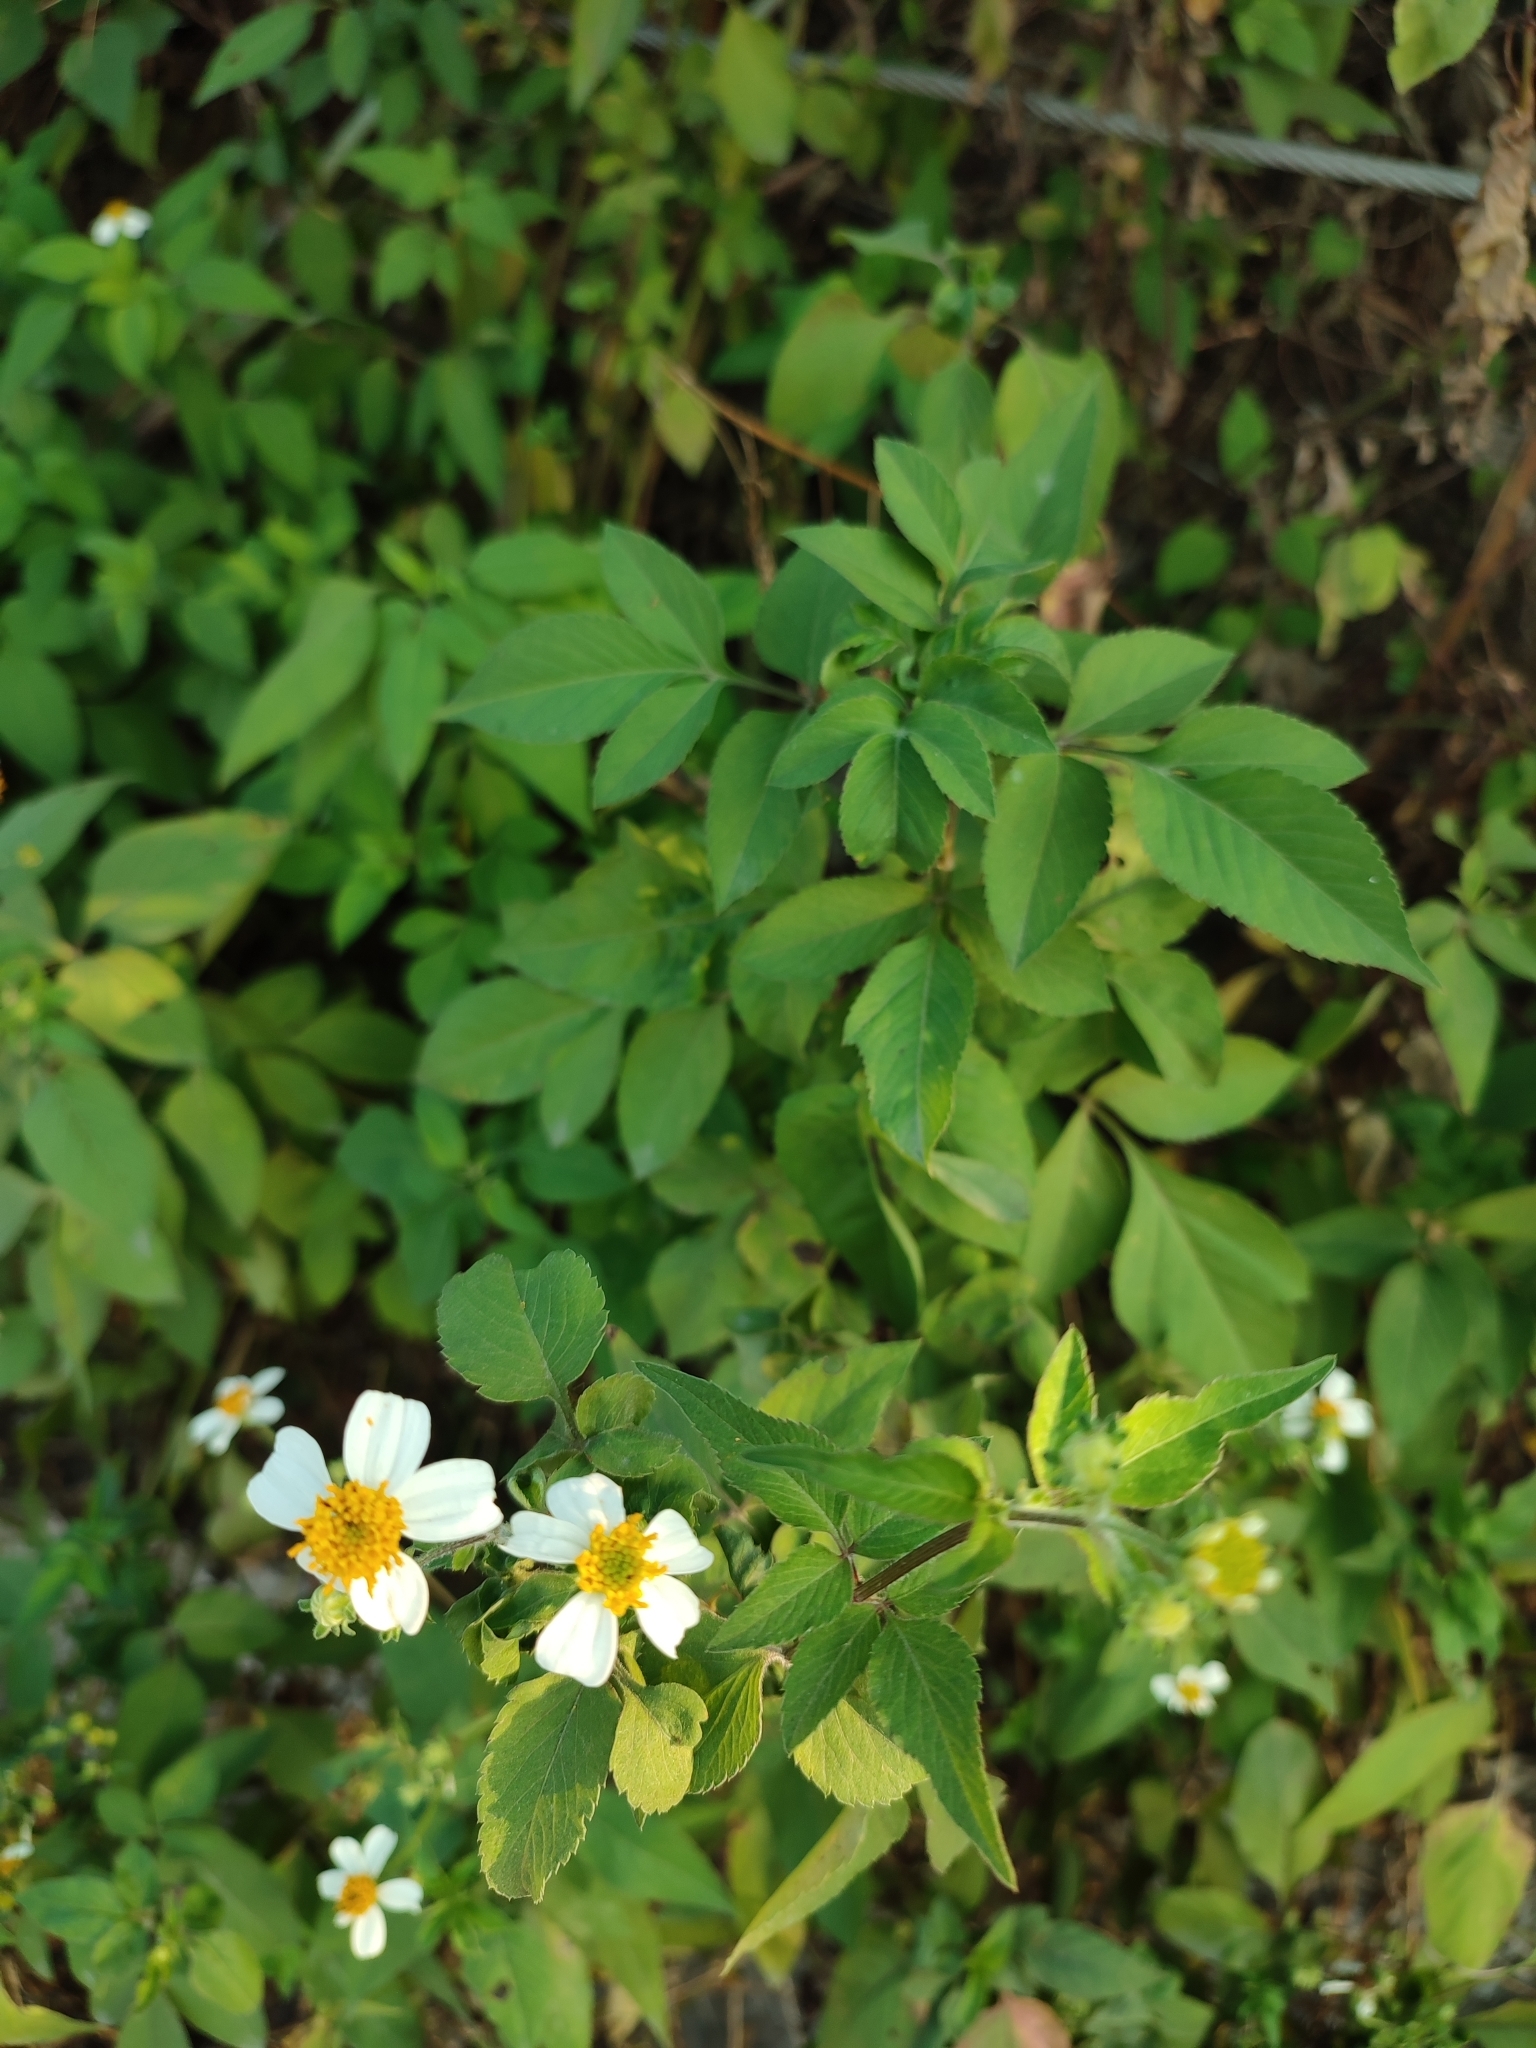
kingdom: Plantae
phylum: Tracheophyta
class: Magnoliopsida
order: Asterales
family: Asteraceae
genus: Bidens
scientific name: Bidens alba
